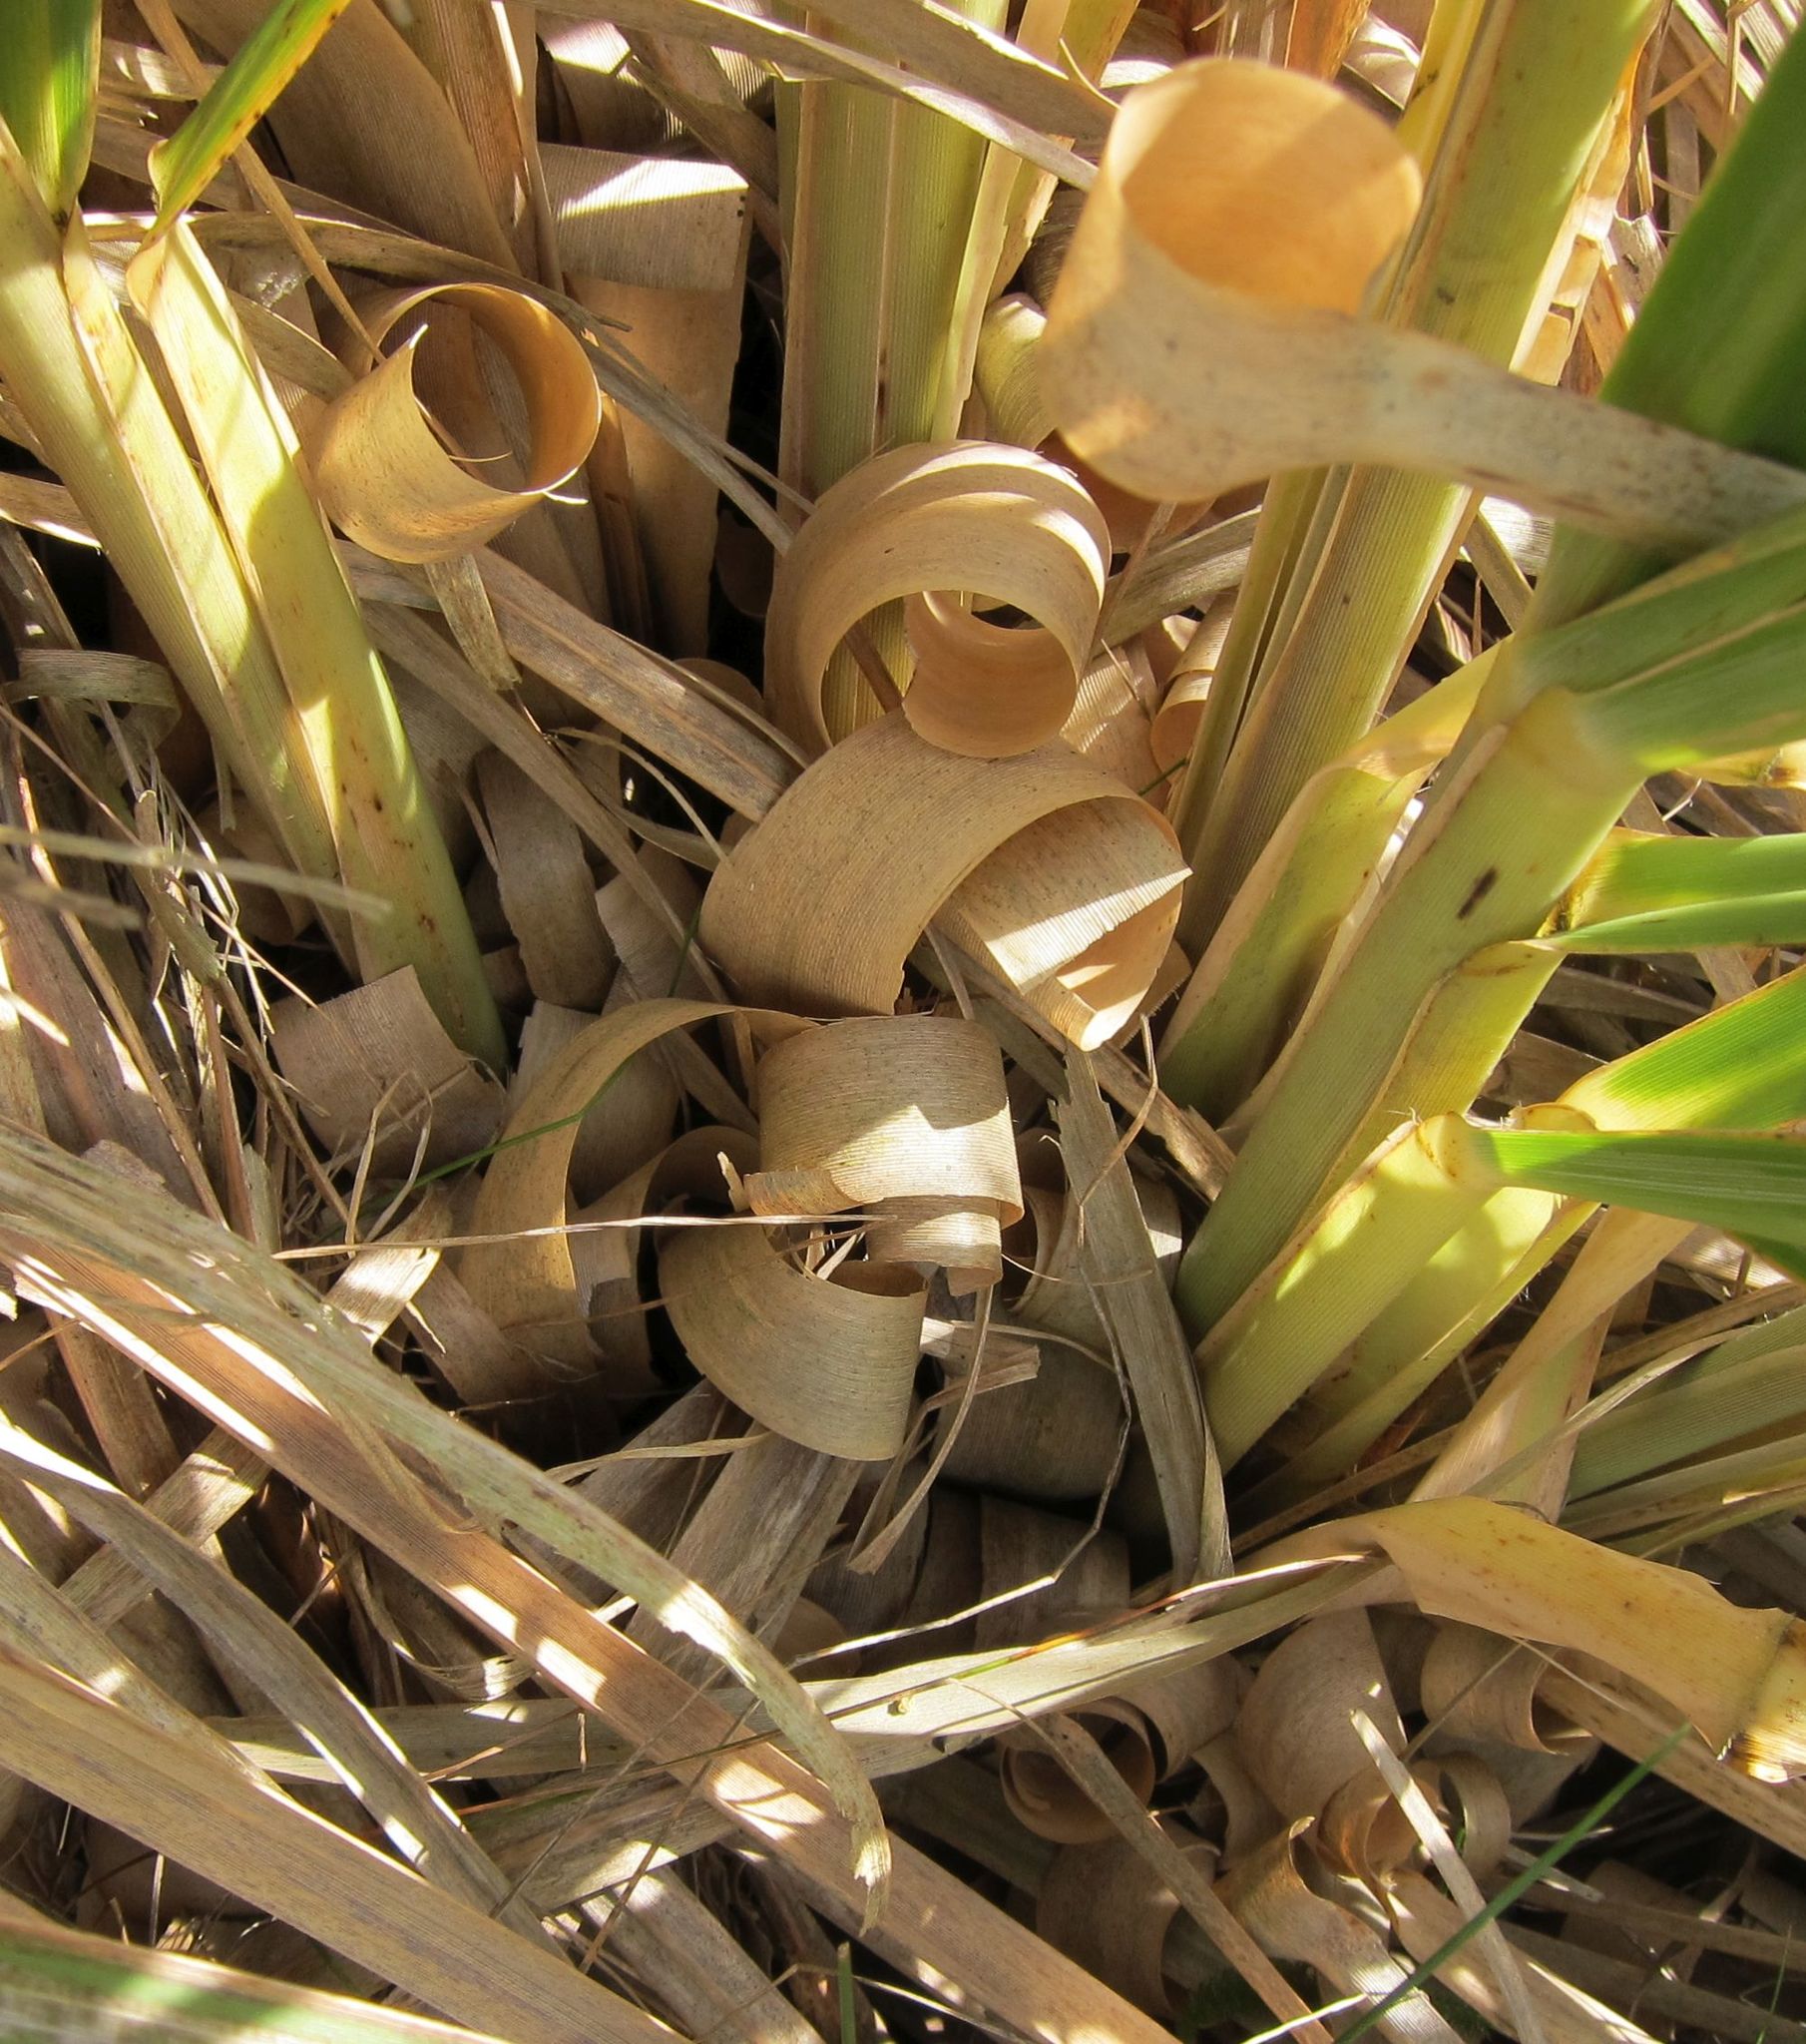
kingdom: Plantae
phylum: Tracheophyta
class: Liliopsida
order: Poales
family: Poaceae
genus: Cortaderia
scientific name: Cortaderia selloana
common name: Uruguayan pampas grass
